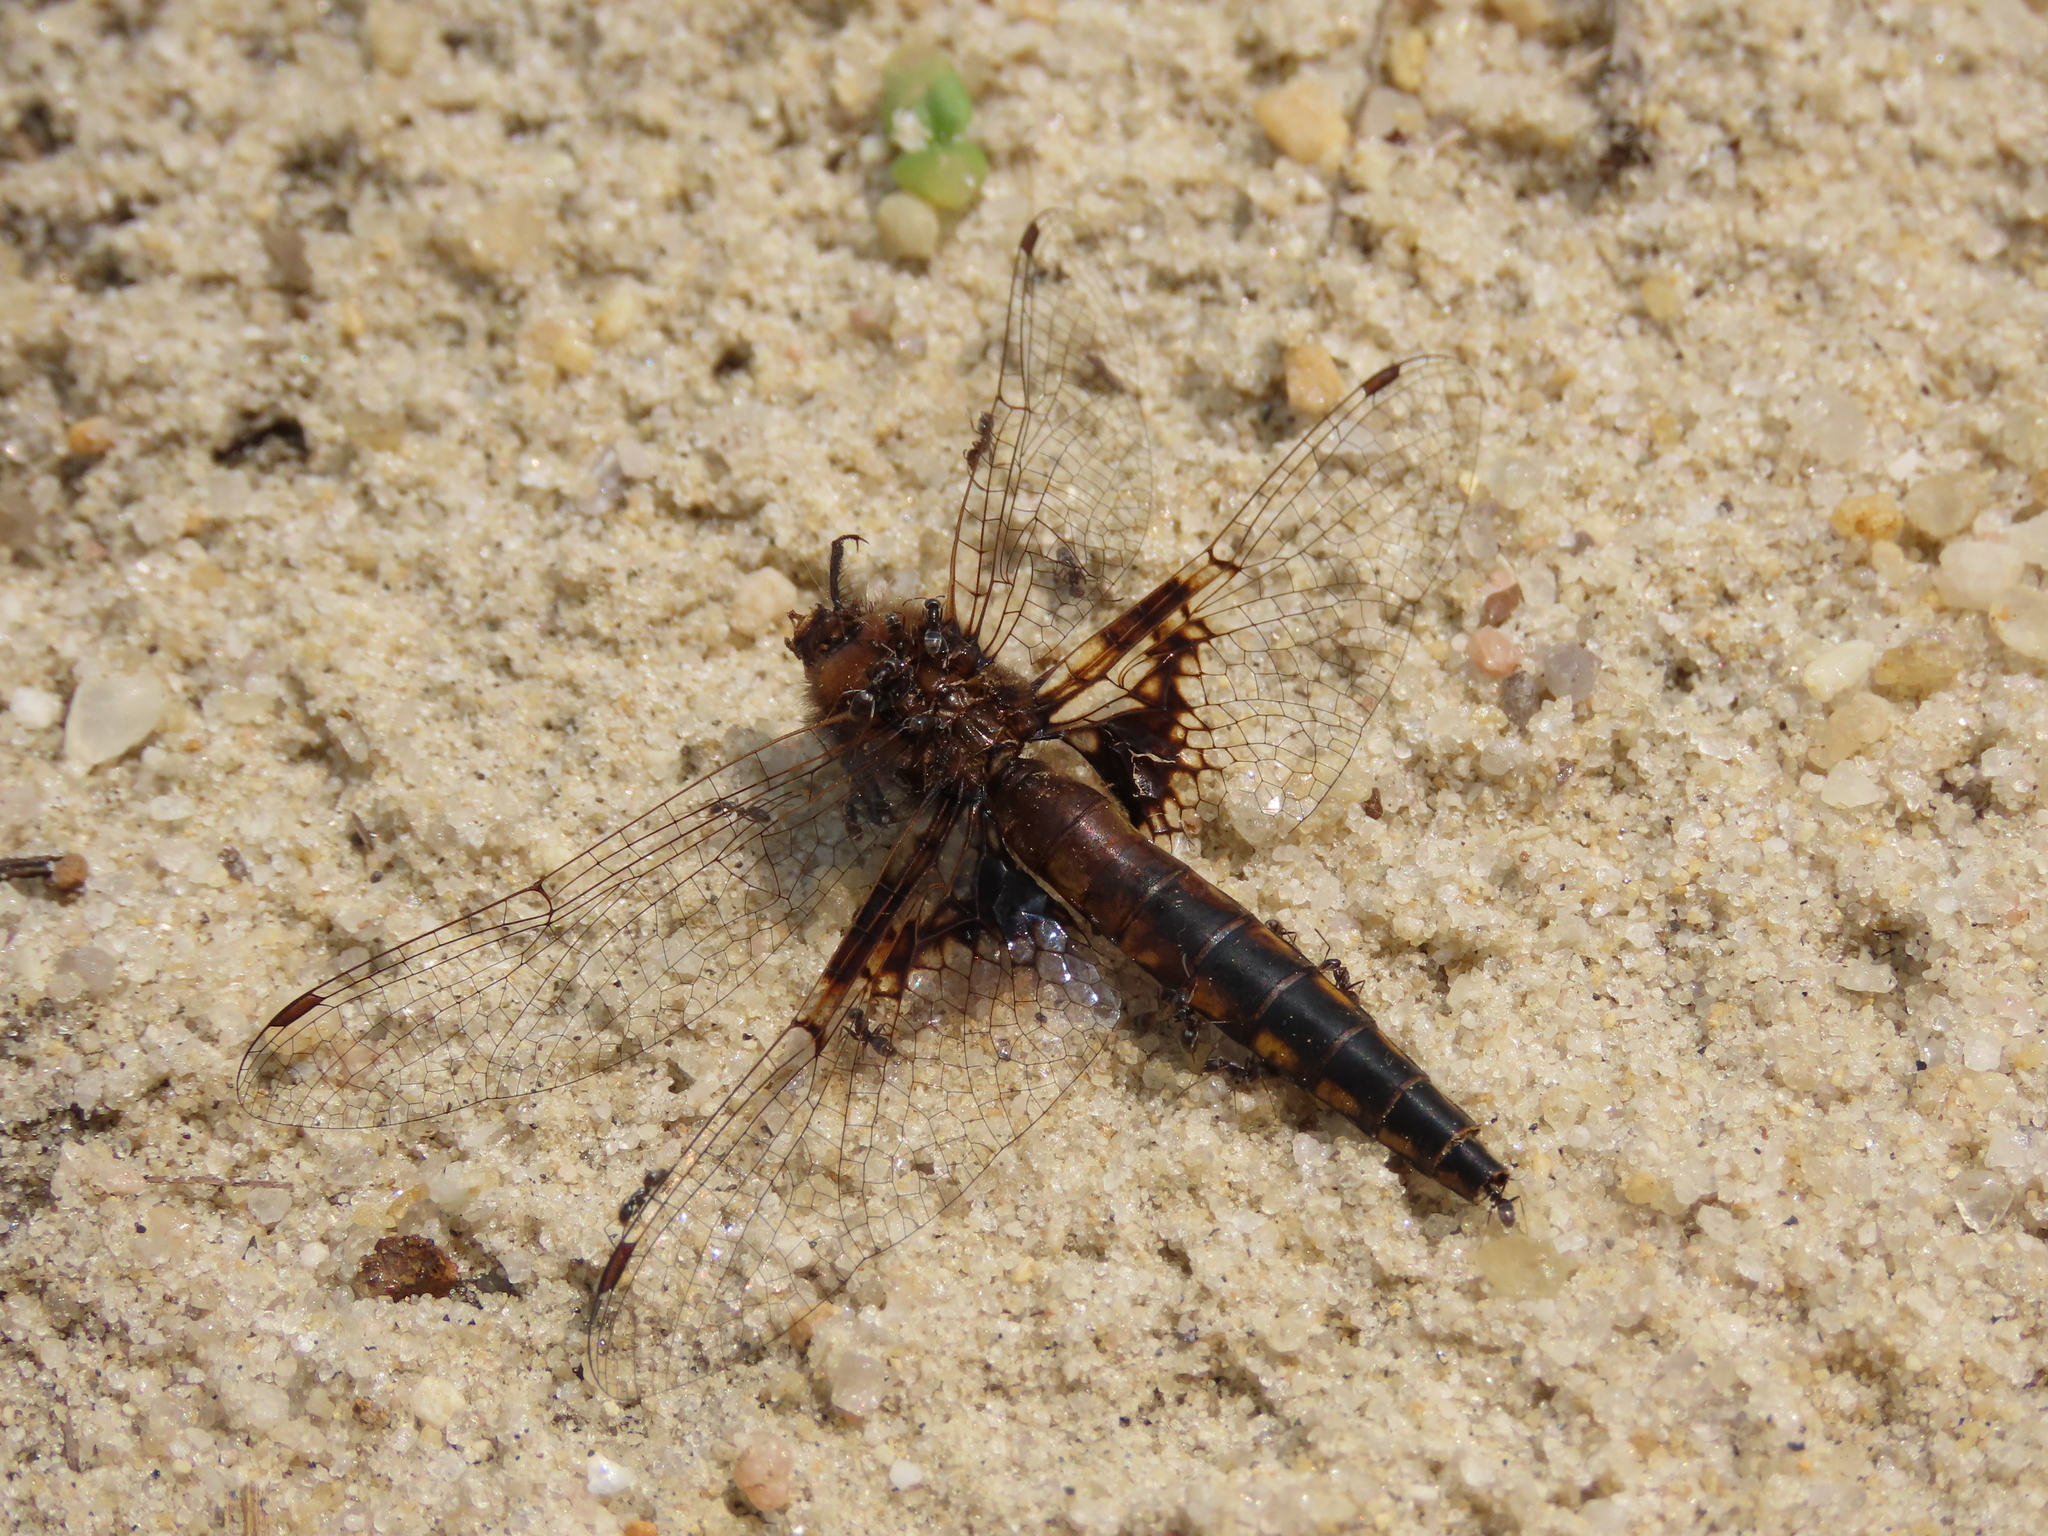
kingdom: Animalia
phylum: Arthropoda
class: Insecta
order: Odonata
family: Corduliidae
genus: Epitheca
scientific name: Epitheca semiaquea
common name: Mantled baskettail
